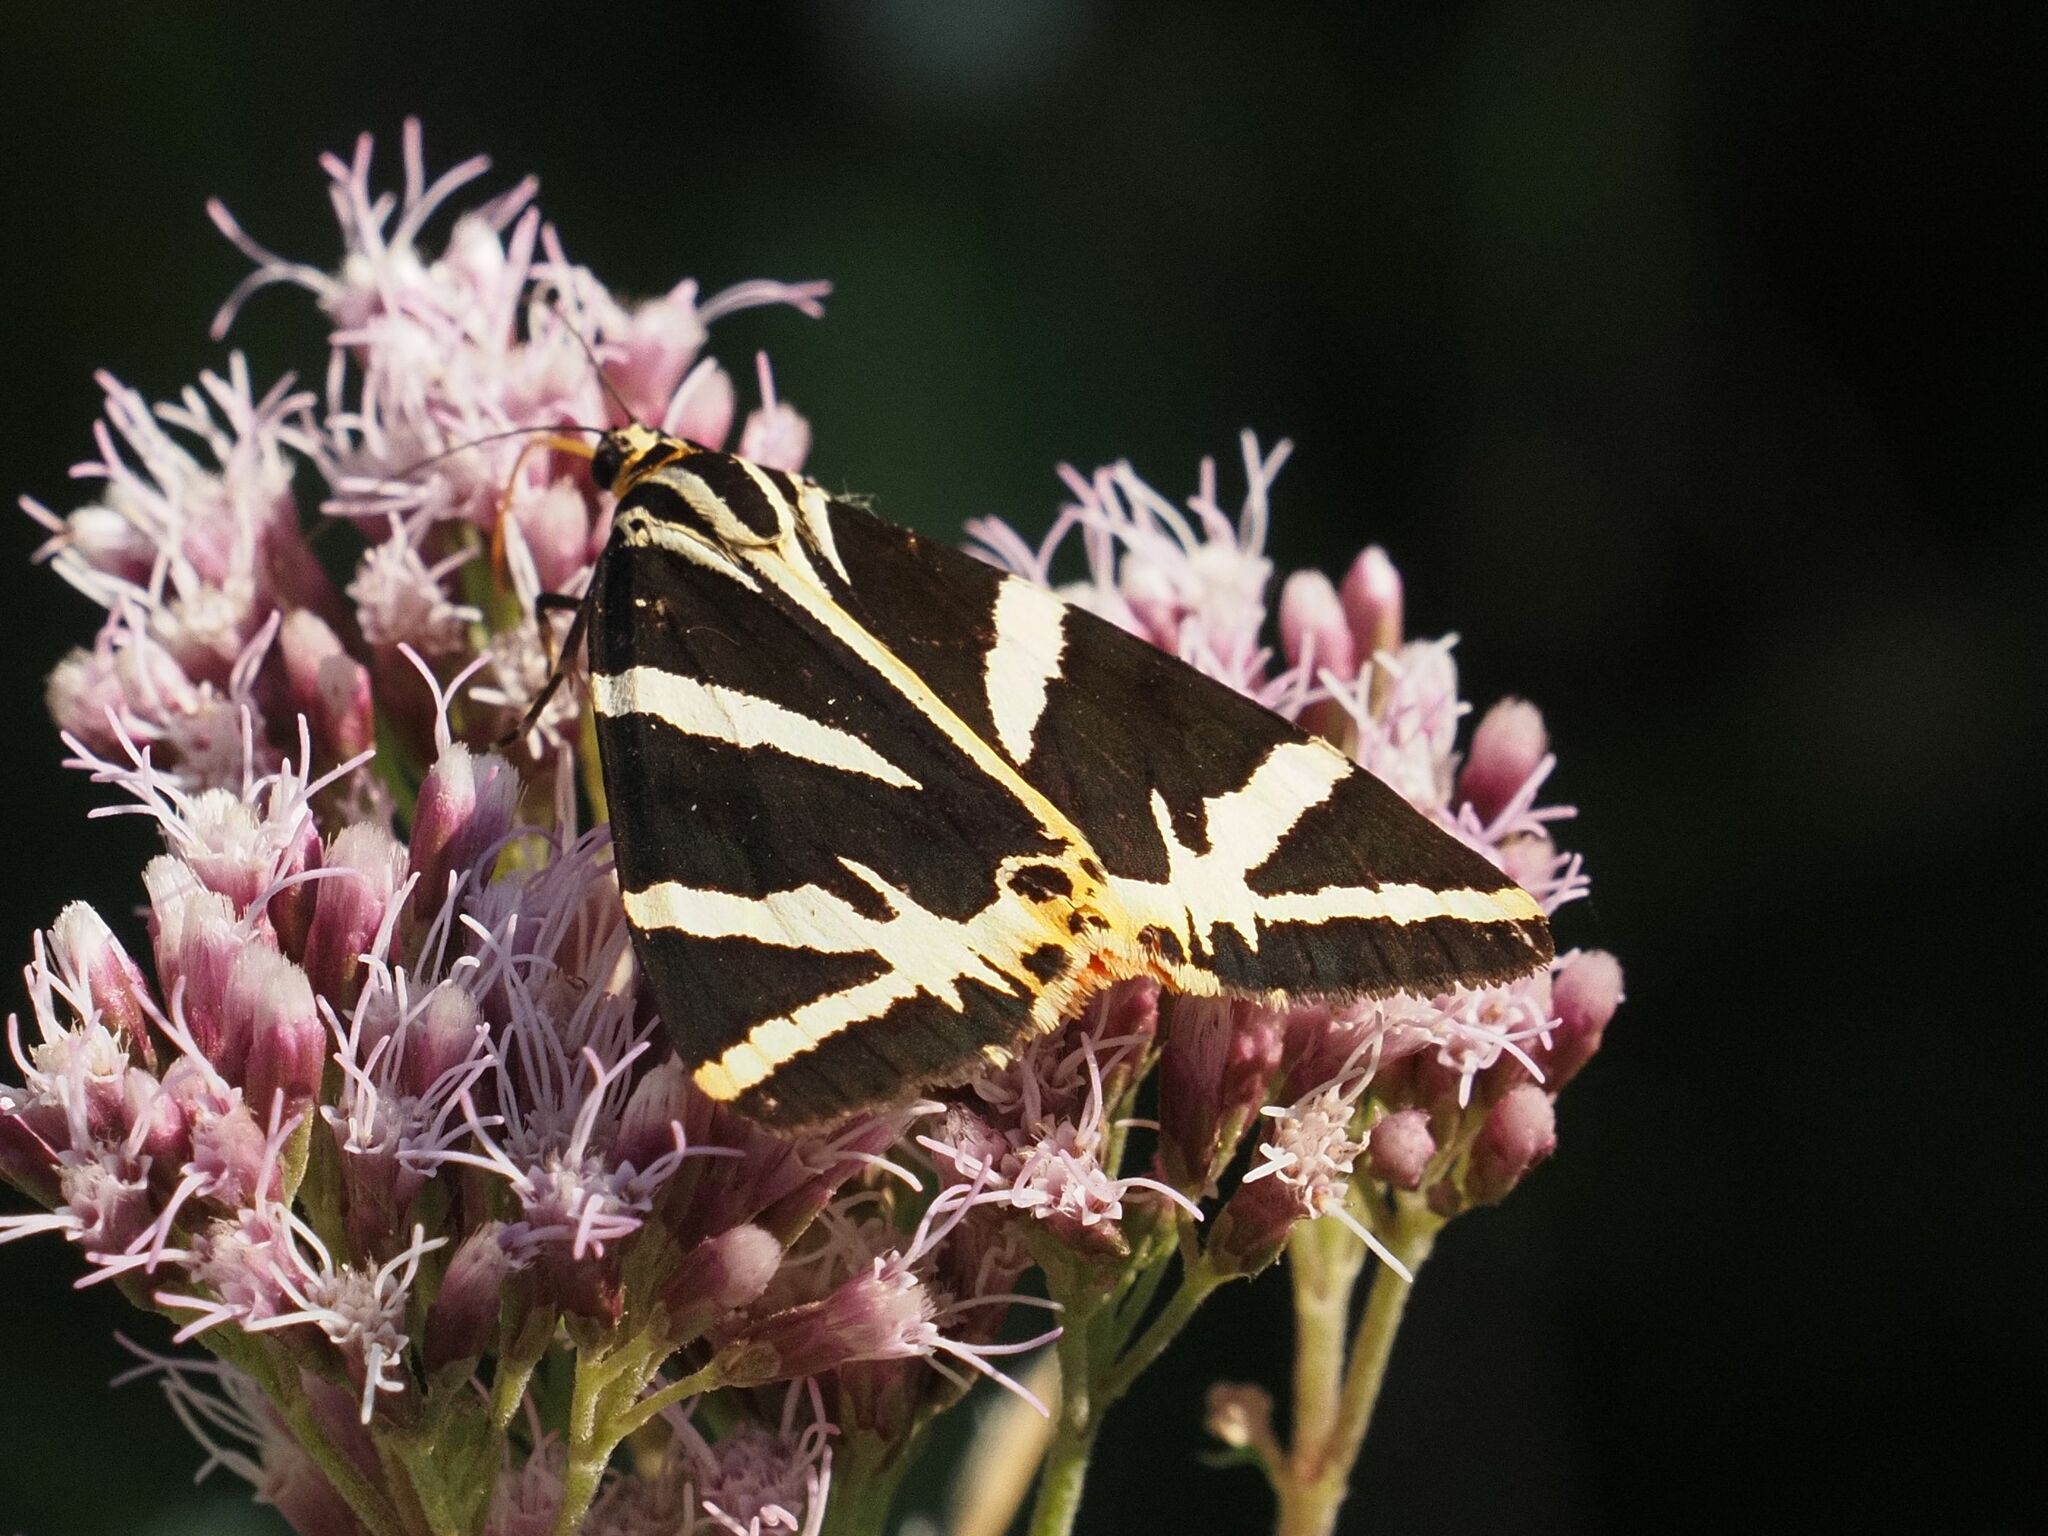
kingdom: Animalia
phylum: Arthropoda
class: Insecta
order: Lepidoptera
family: Erebidae
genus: Euplagia
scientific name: Euplagia quadripunctaria
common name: Jersey tiger
